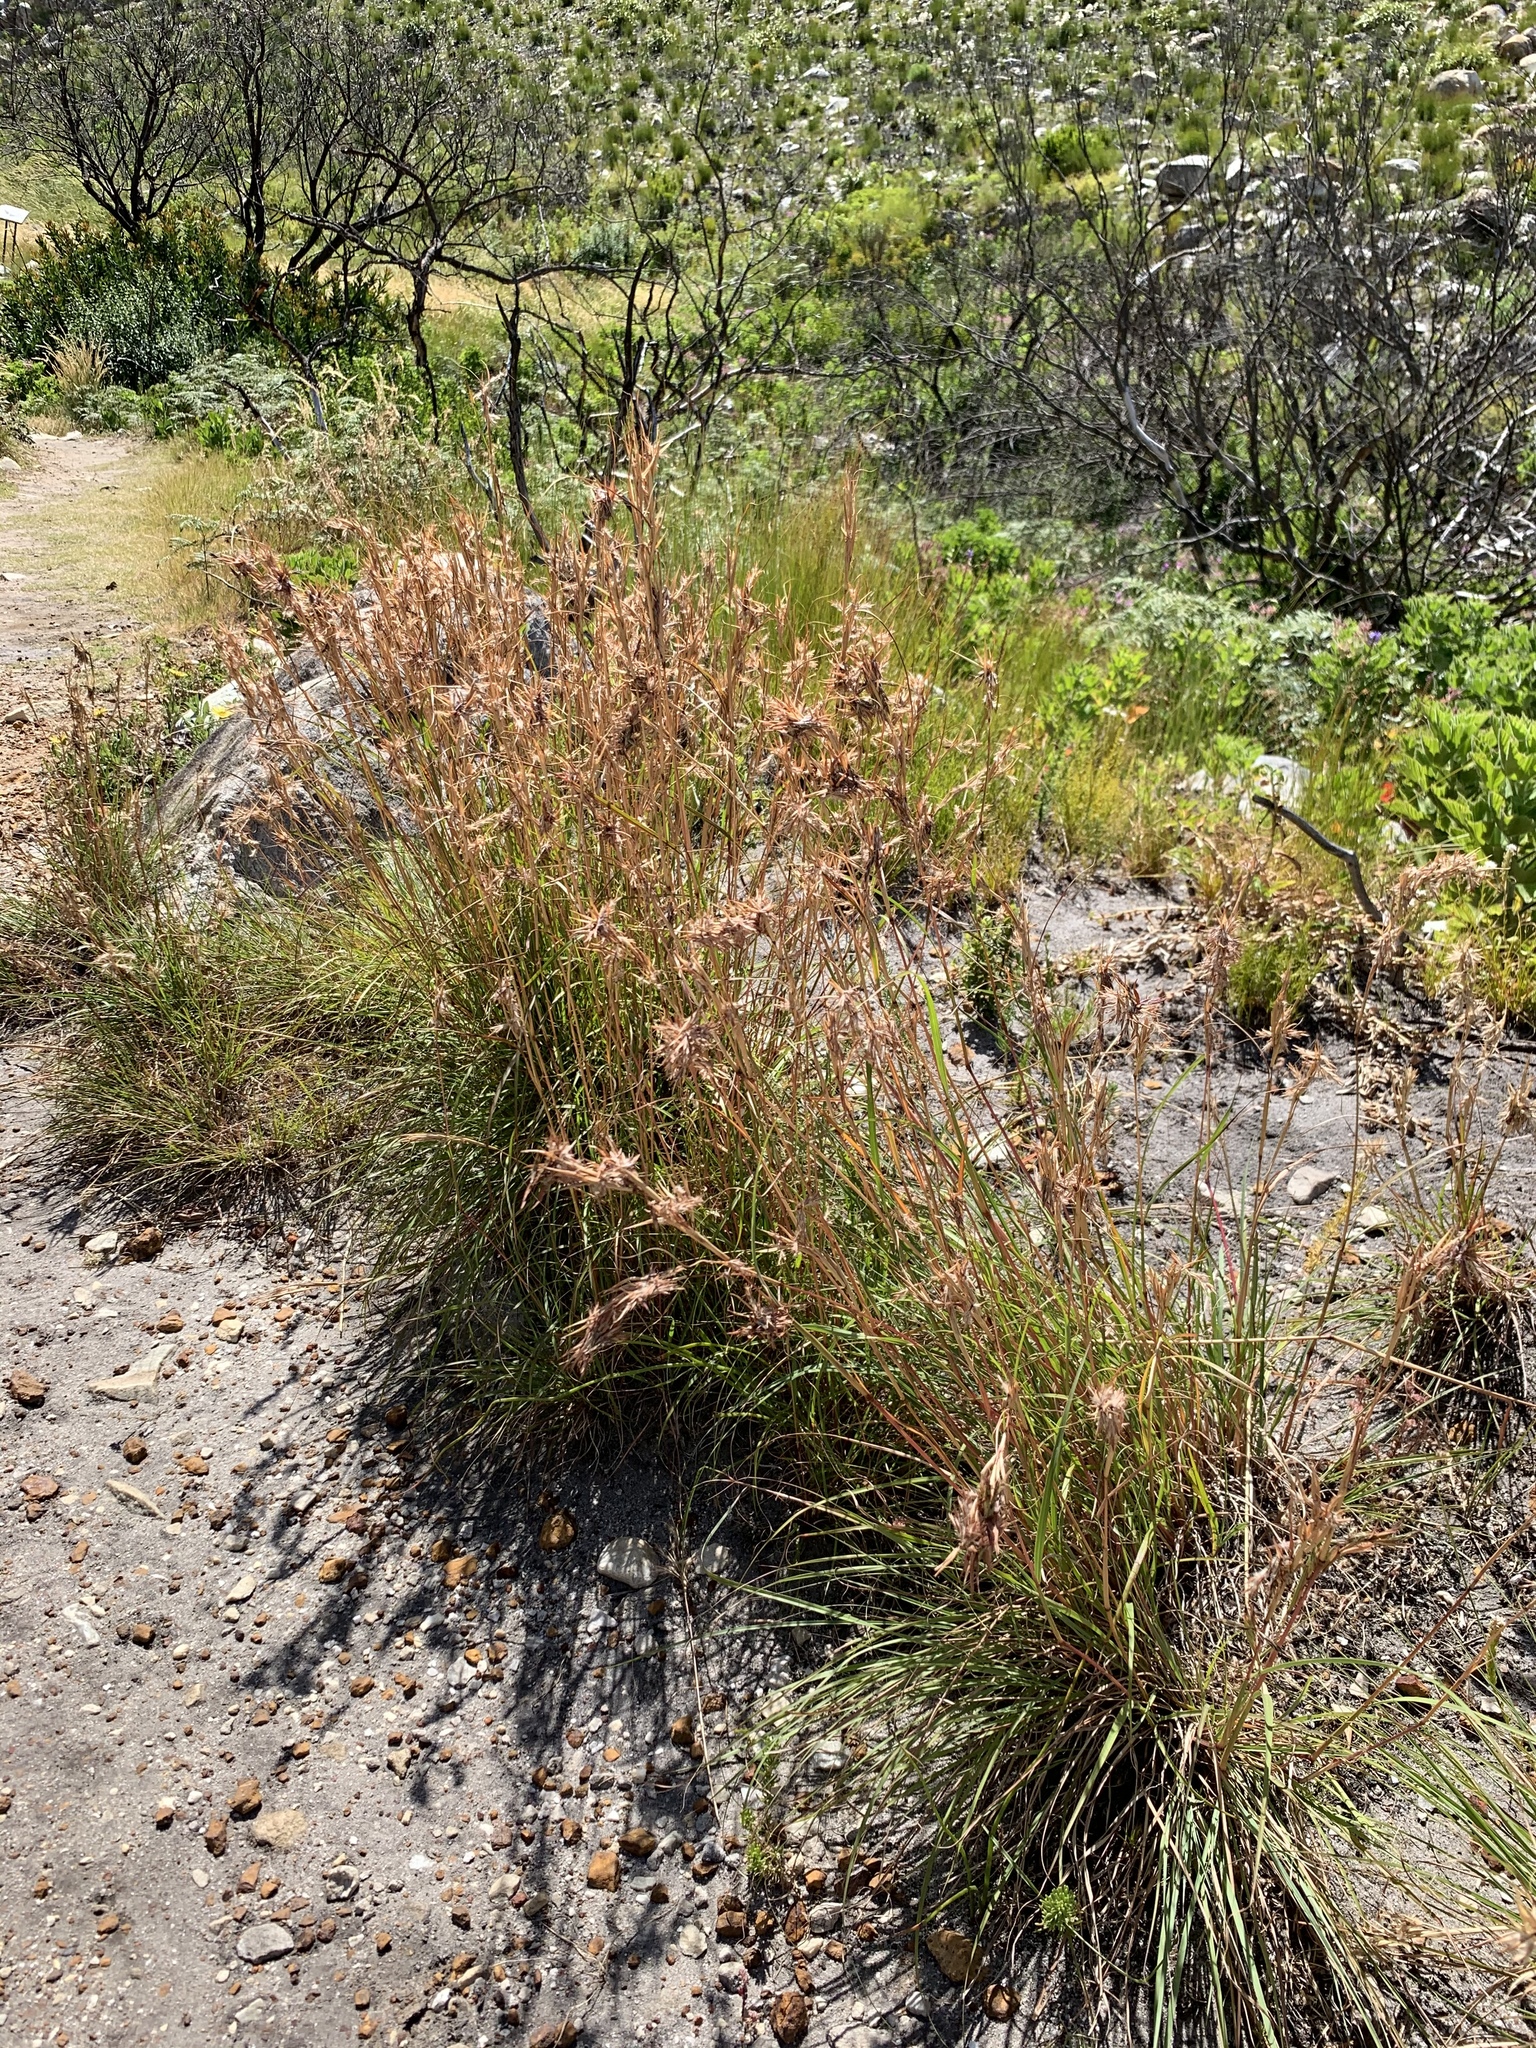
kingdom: Plantae
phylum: Tracheophyta
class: Liliopsida
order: Poales
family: Poaceae
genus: Cymbopogon
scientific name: Cymbopogon marginatus
